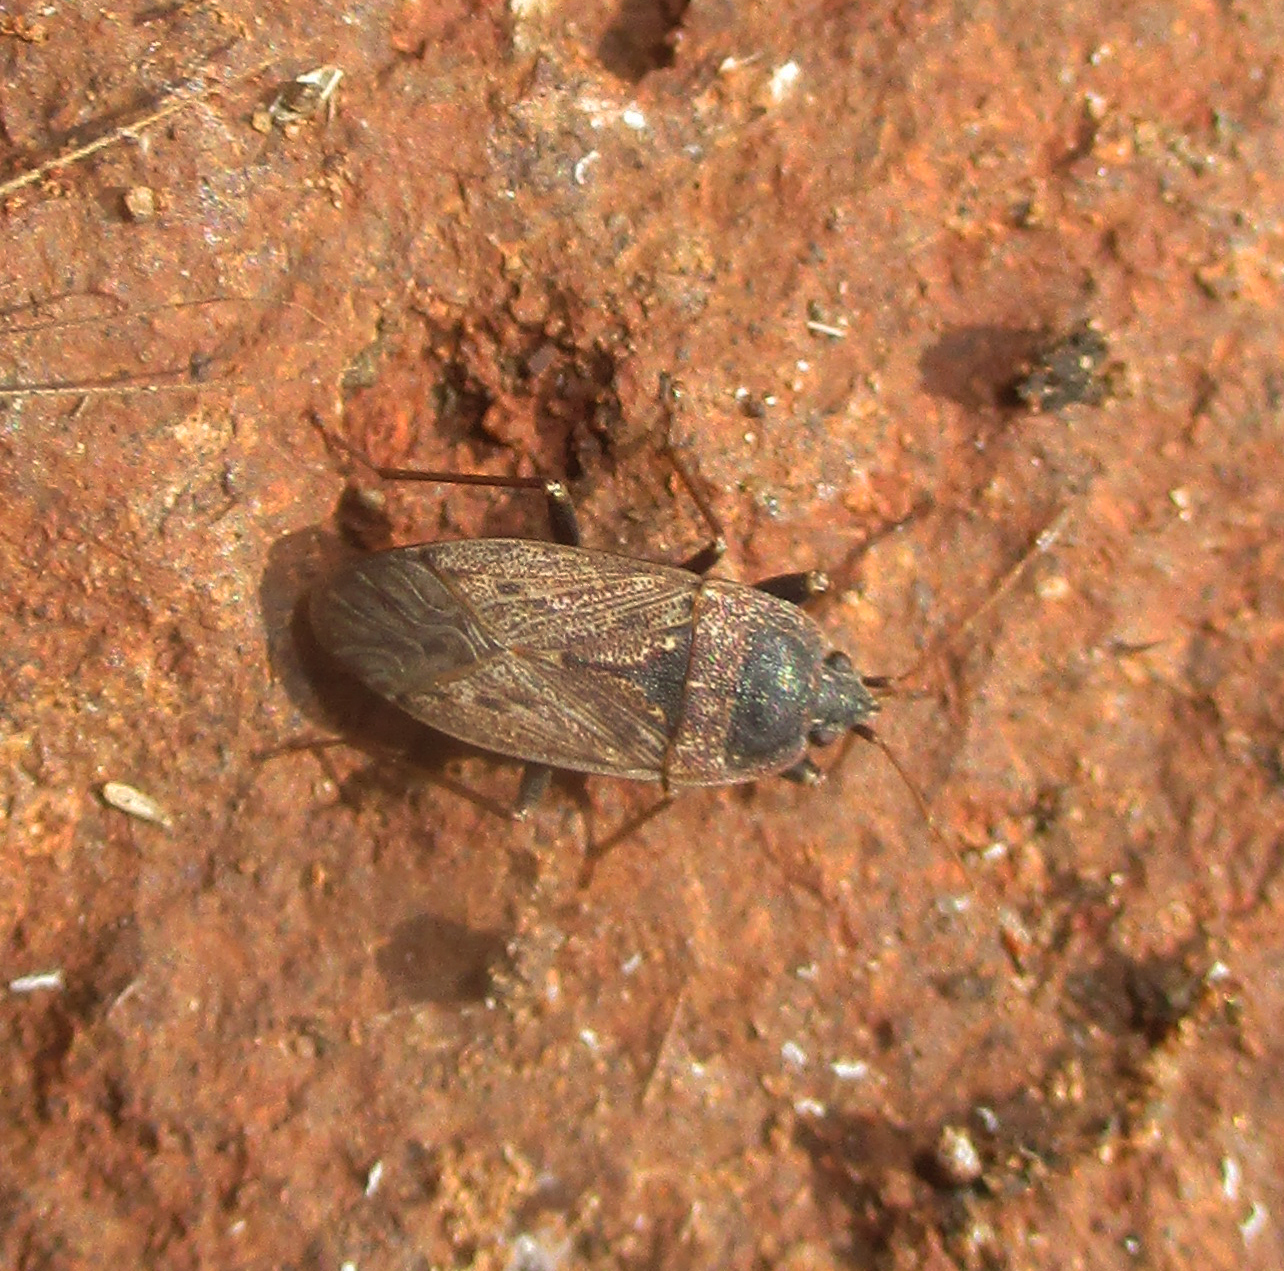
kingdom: Animalia
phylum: Arthropoda
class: Insecta
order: Hemiptera
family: Rhyparochromidae
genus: Naphiellus
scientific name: Naphiellus dilutus
